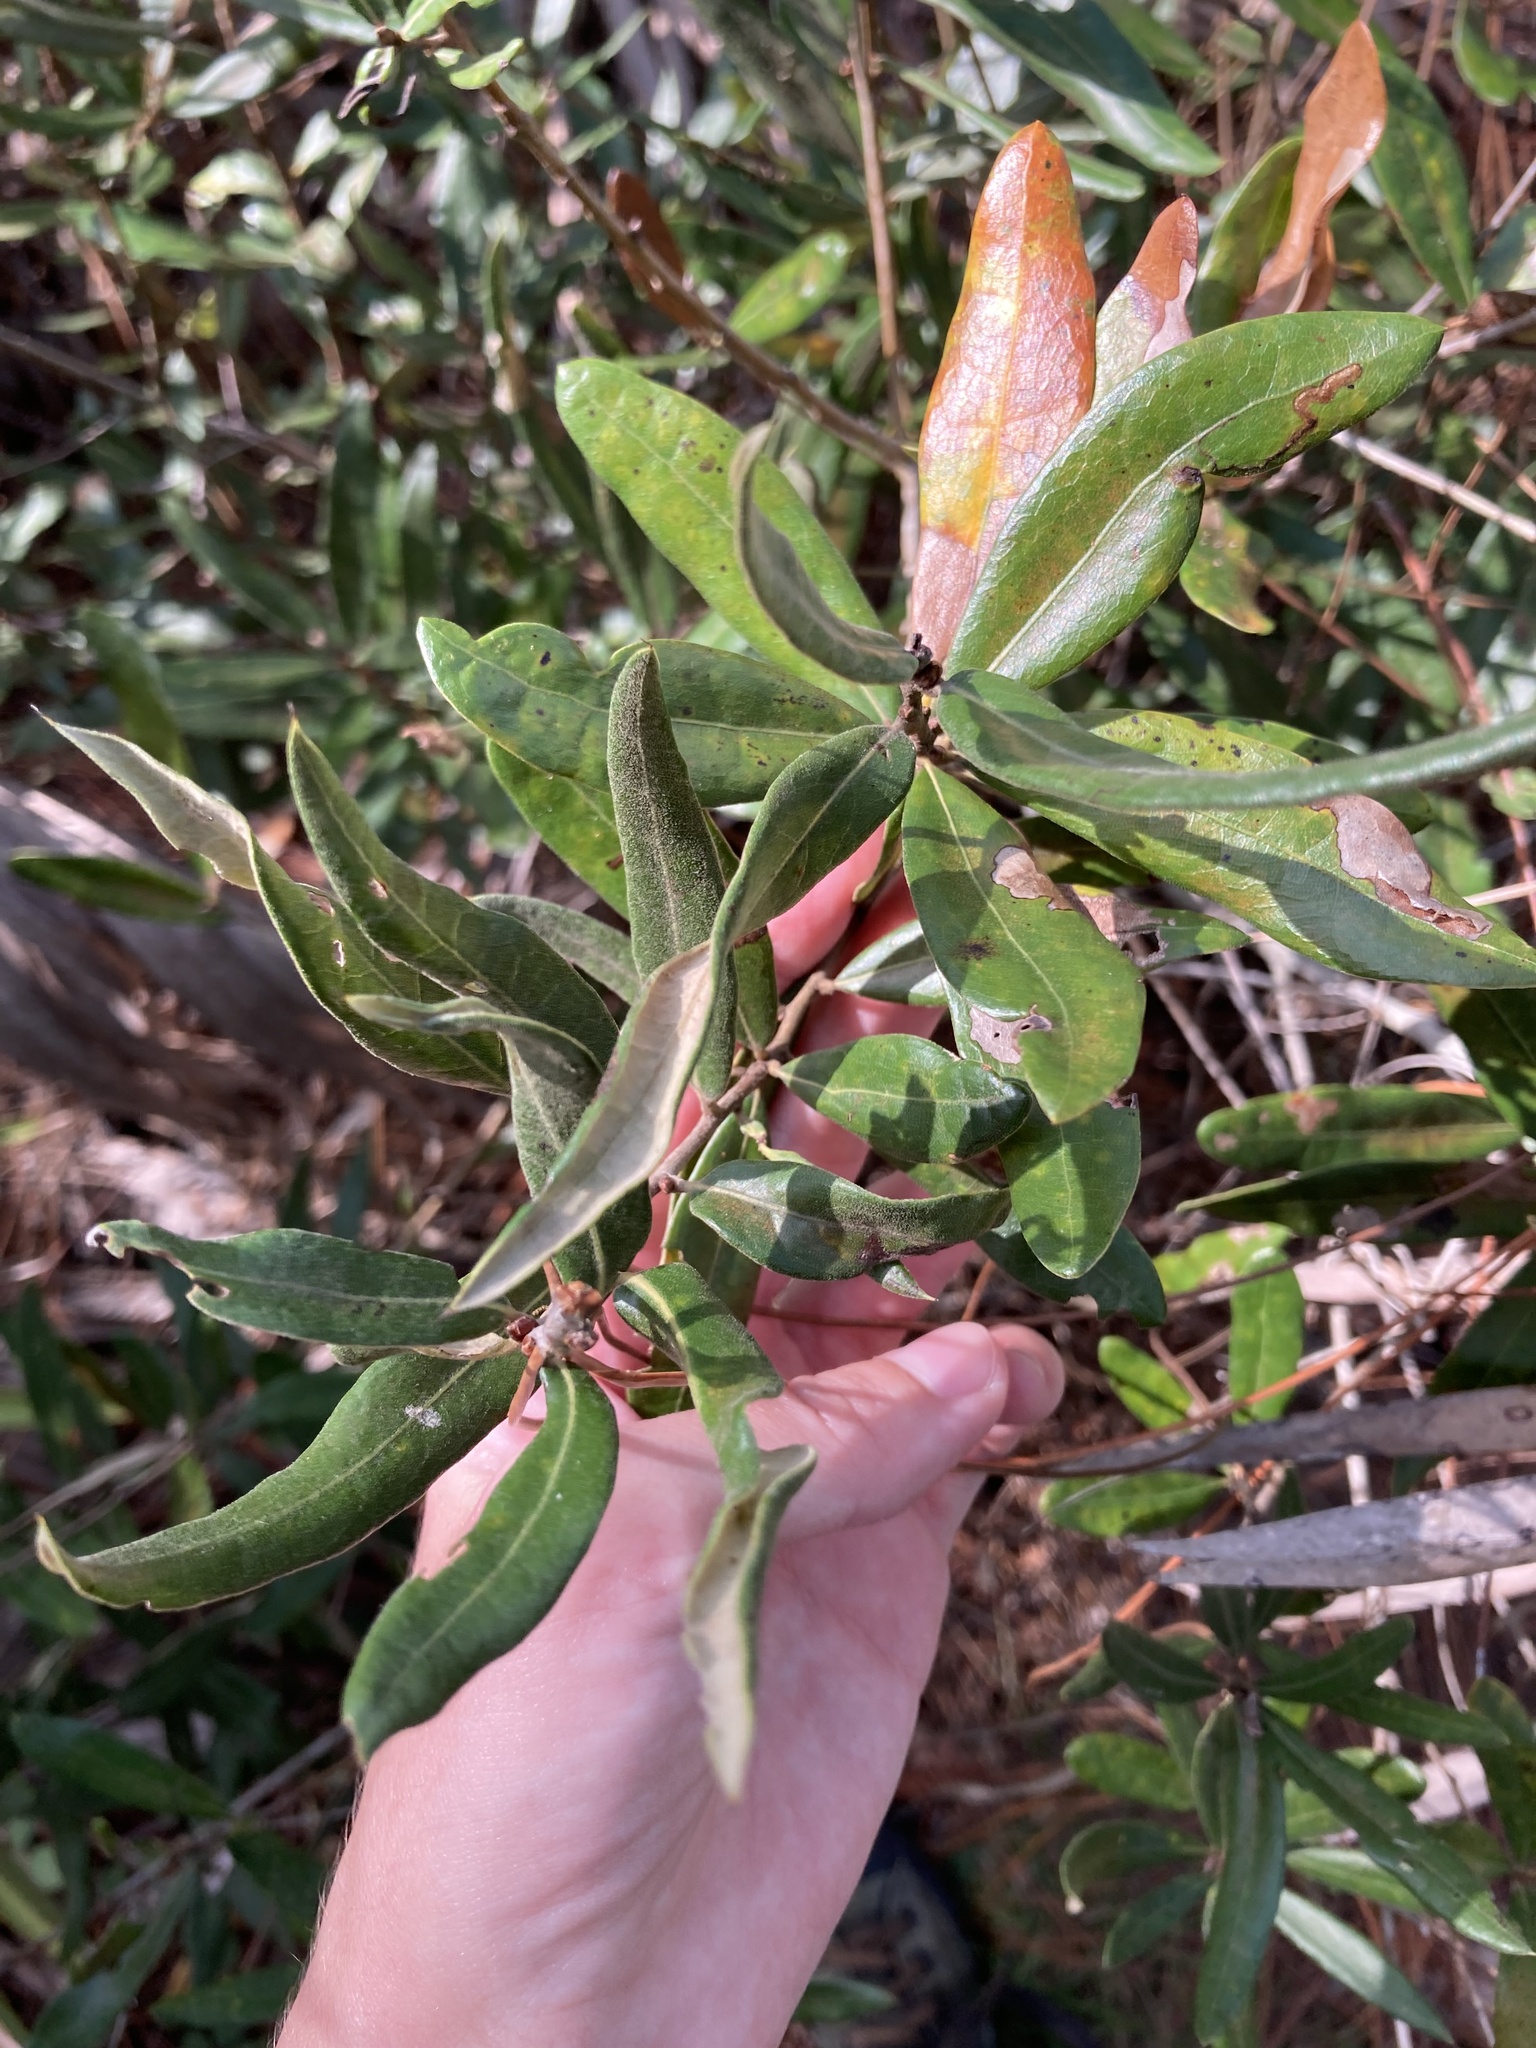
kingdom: Plantae
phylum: Tracheophyta
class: Magnoliopsida
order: Fagales
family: Fagaceae
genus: Quercus
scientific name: Quercus pumila
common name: Runner oak
